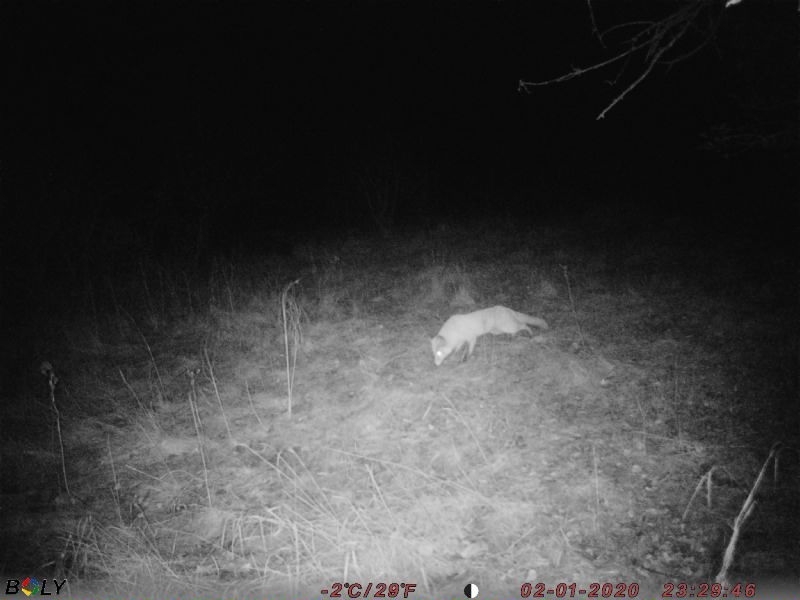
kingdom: Animalia
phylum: Chordata
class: Mammalia
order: Carnivora
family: Canidae
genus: Vulpes
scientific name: Vulpes vulpes
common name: Red fox
